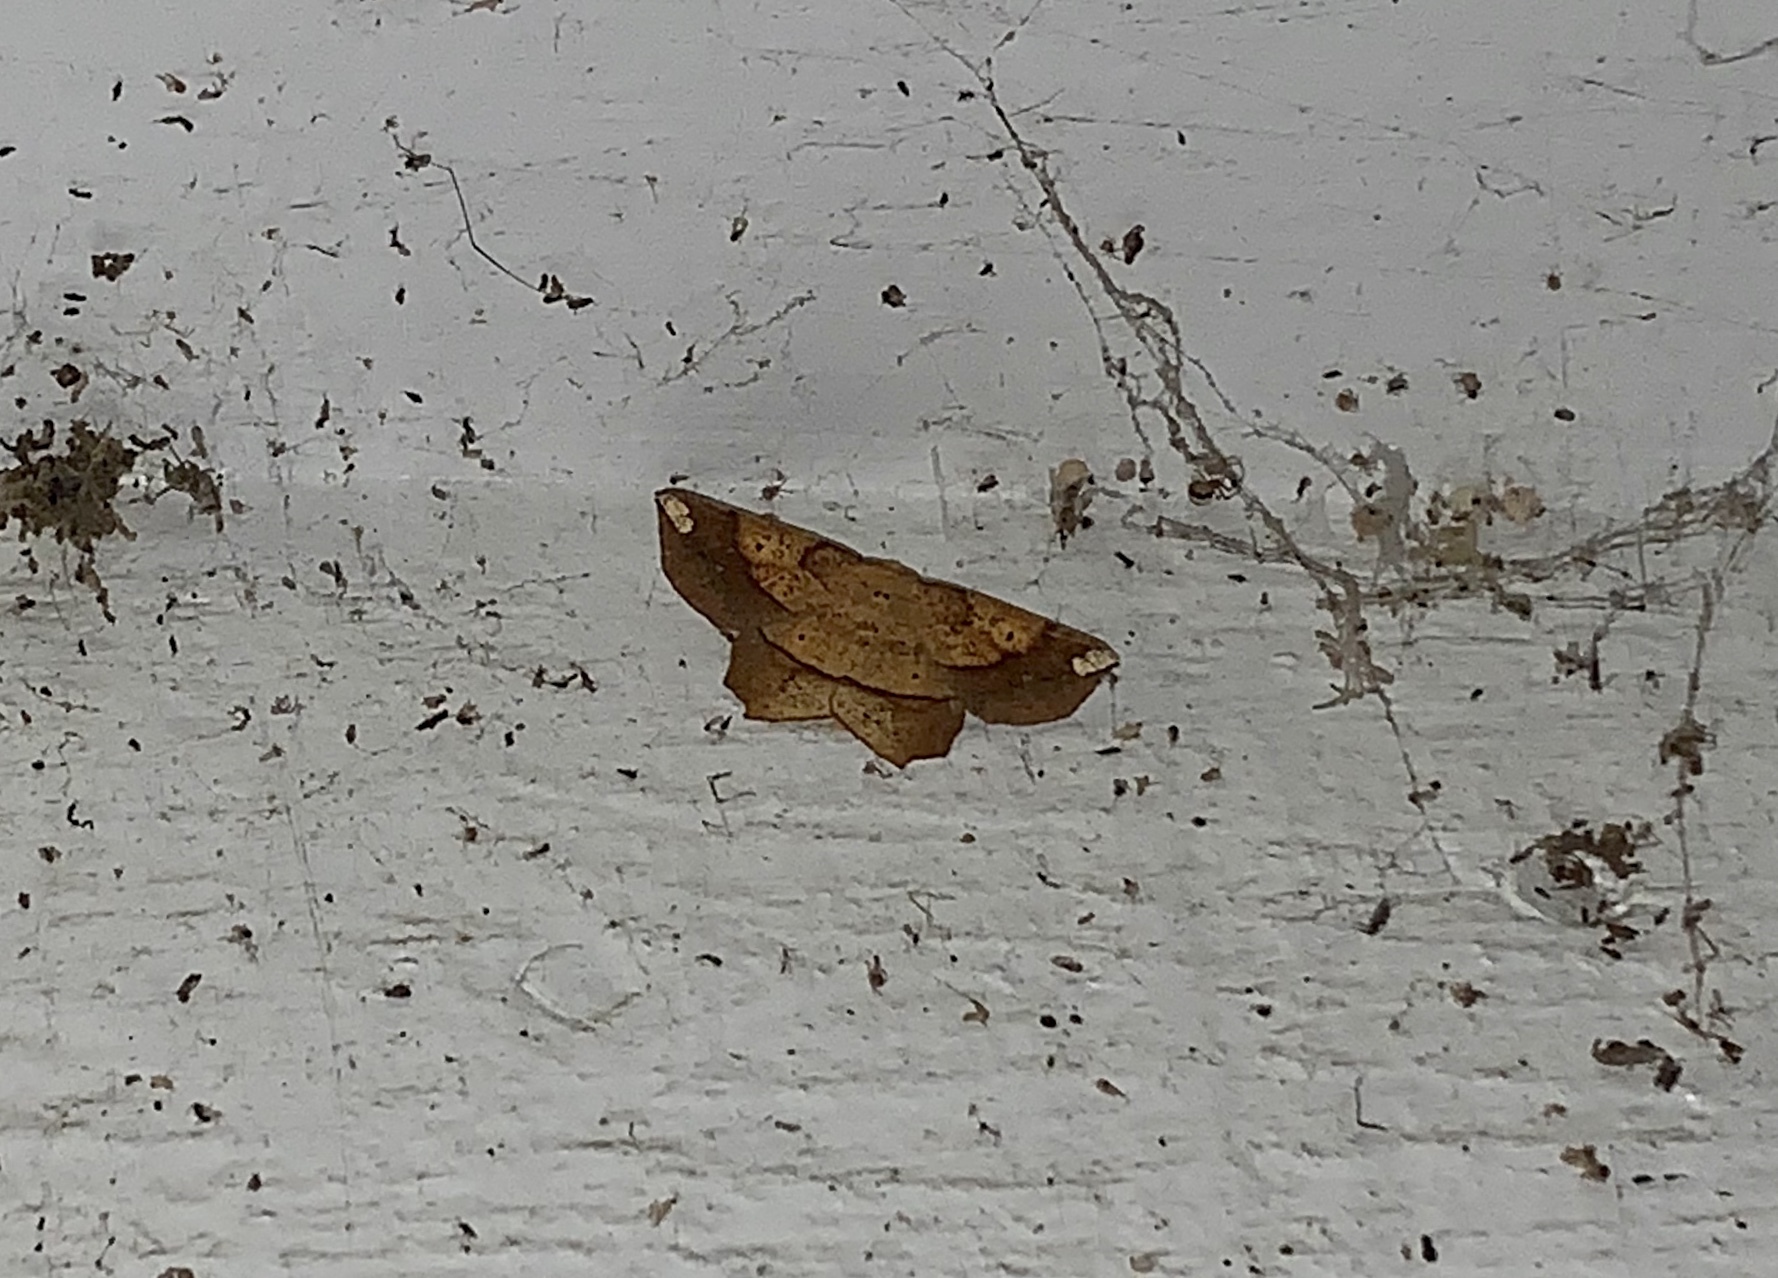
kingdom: Animalia
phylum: Arthropoda
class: Insecta
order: Lepidoptera
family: Geometridae
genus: Euchlaena
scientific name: Euchlaena amoenaria
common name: Deep yellow euchlaena
